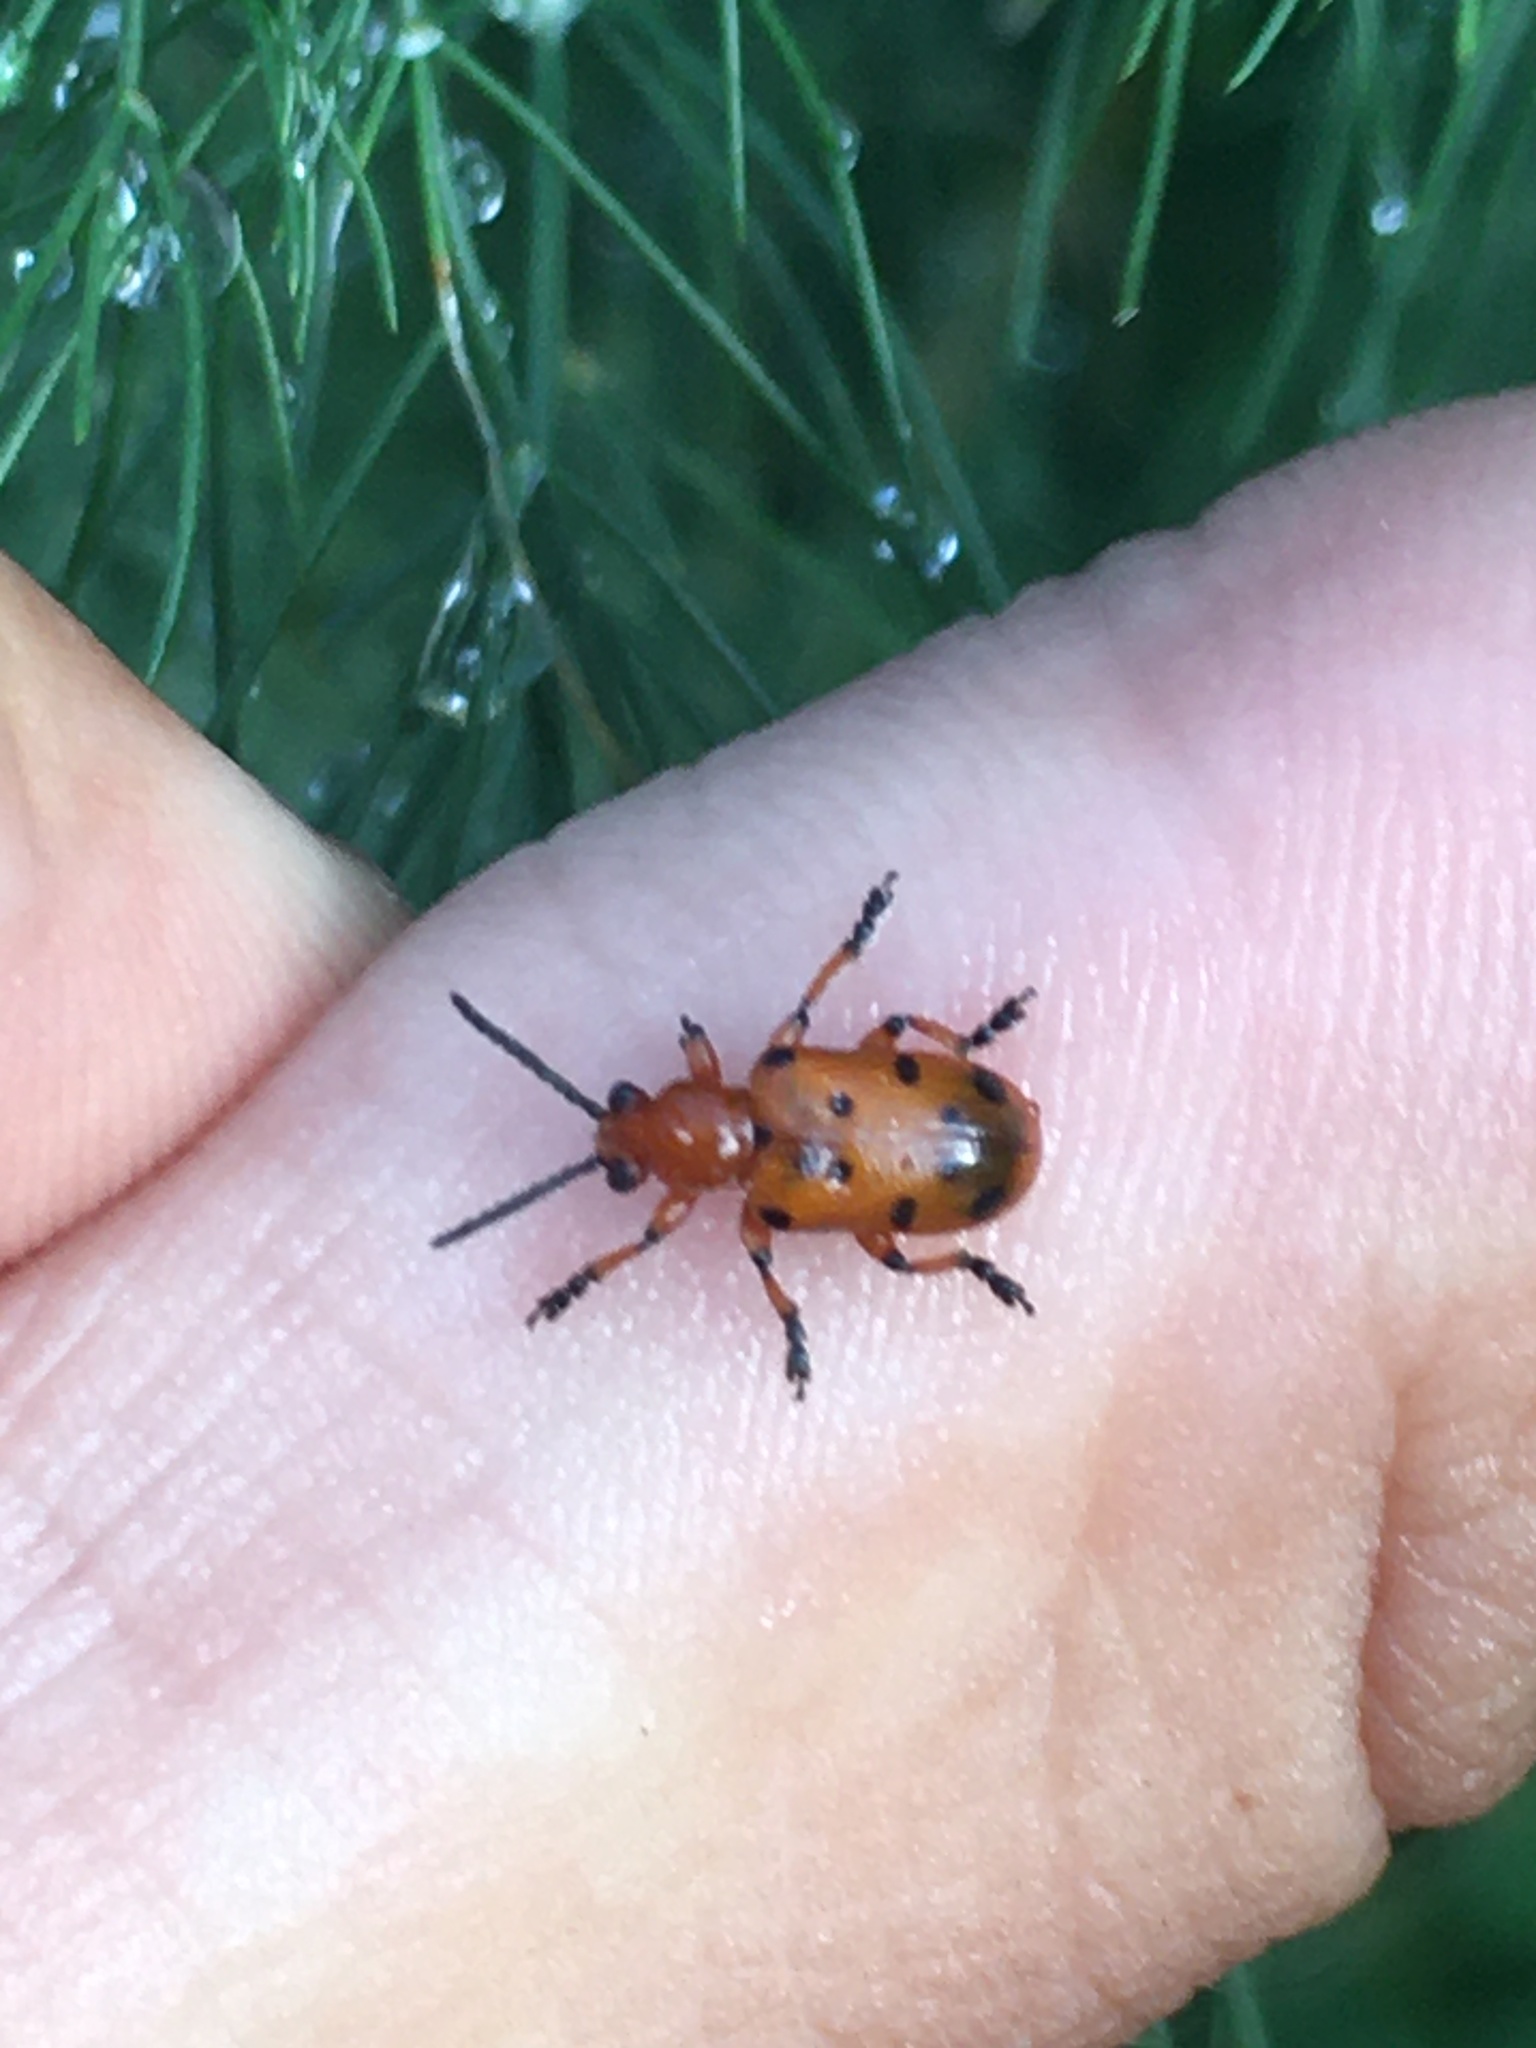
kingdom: Animalia
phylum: Arthropoda
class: Insecta
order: Coleoptera
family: Chrysomelidae
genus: Crioceris
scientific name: Crioceris duodecimpunctata
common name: Twelve-spotted asparagus beetle
